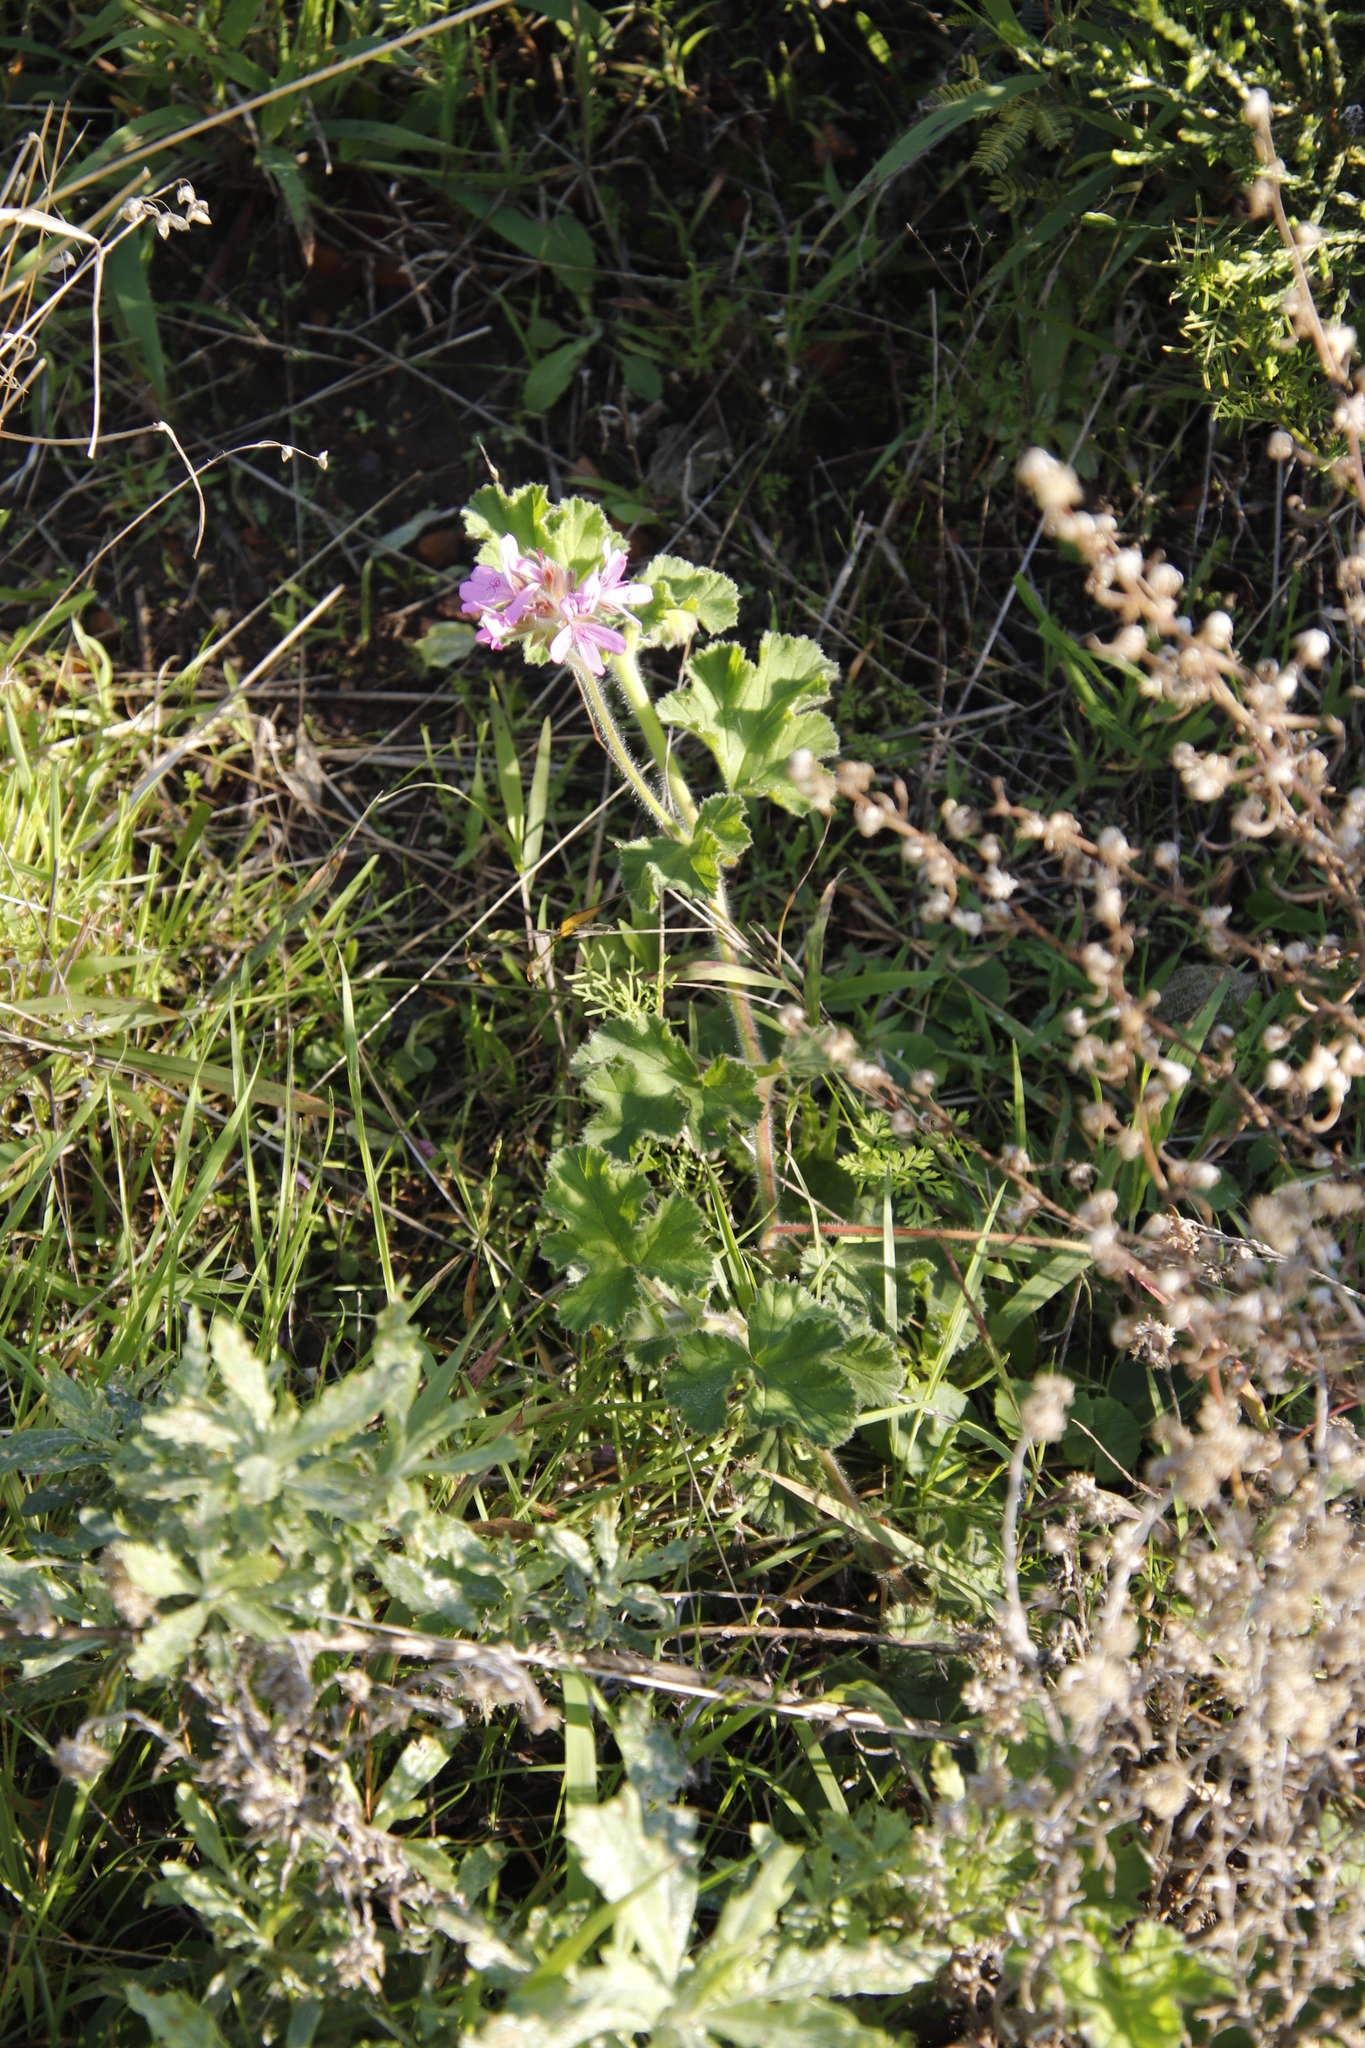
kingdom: Plantae
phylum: Tracheophyta
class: Magnoliopsida
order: Geraniales
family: Geraniaceae
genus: Pelargonium
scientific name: Pelargonium capitatum
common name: Rose scented geranium
